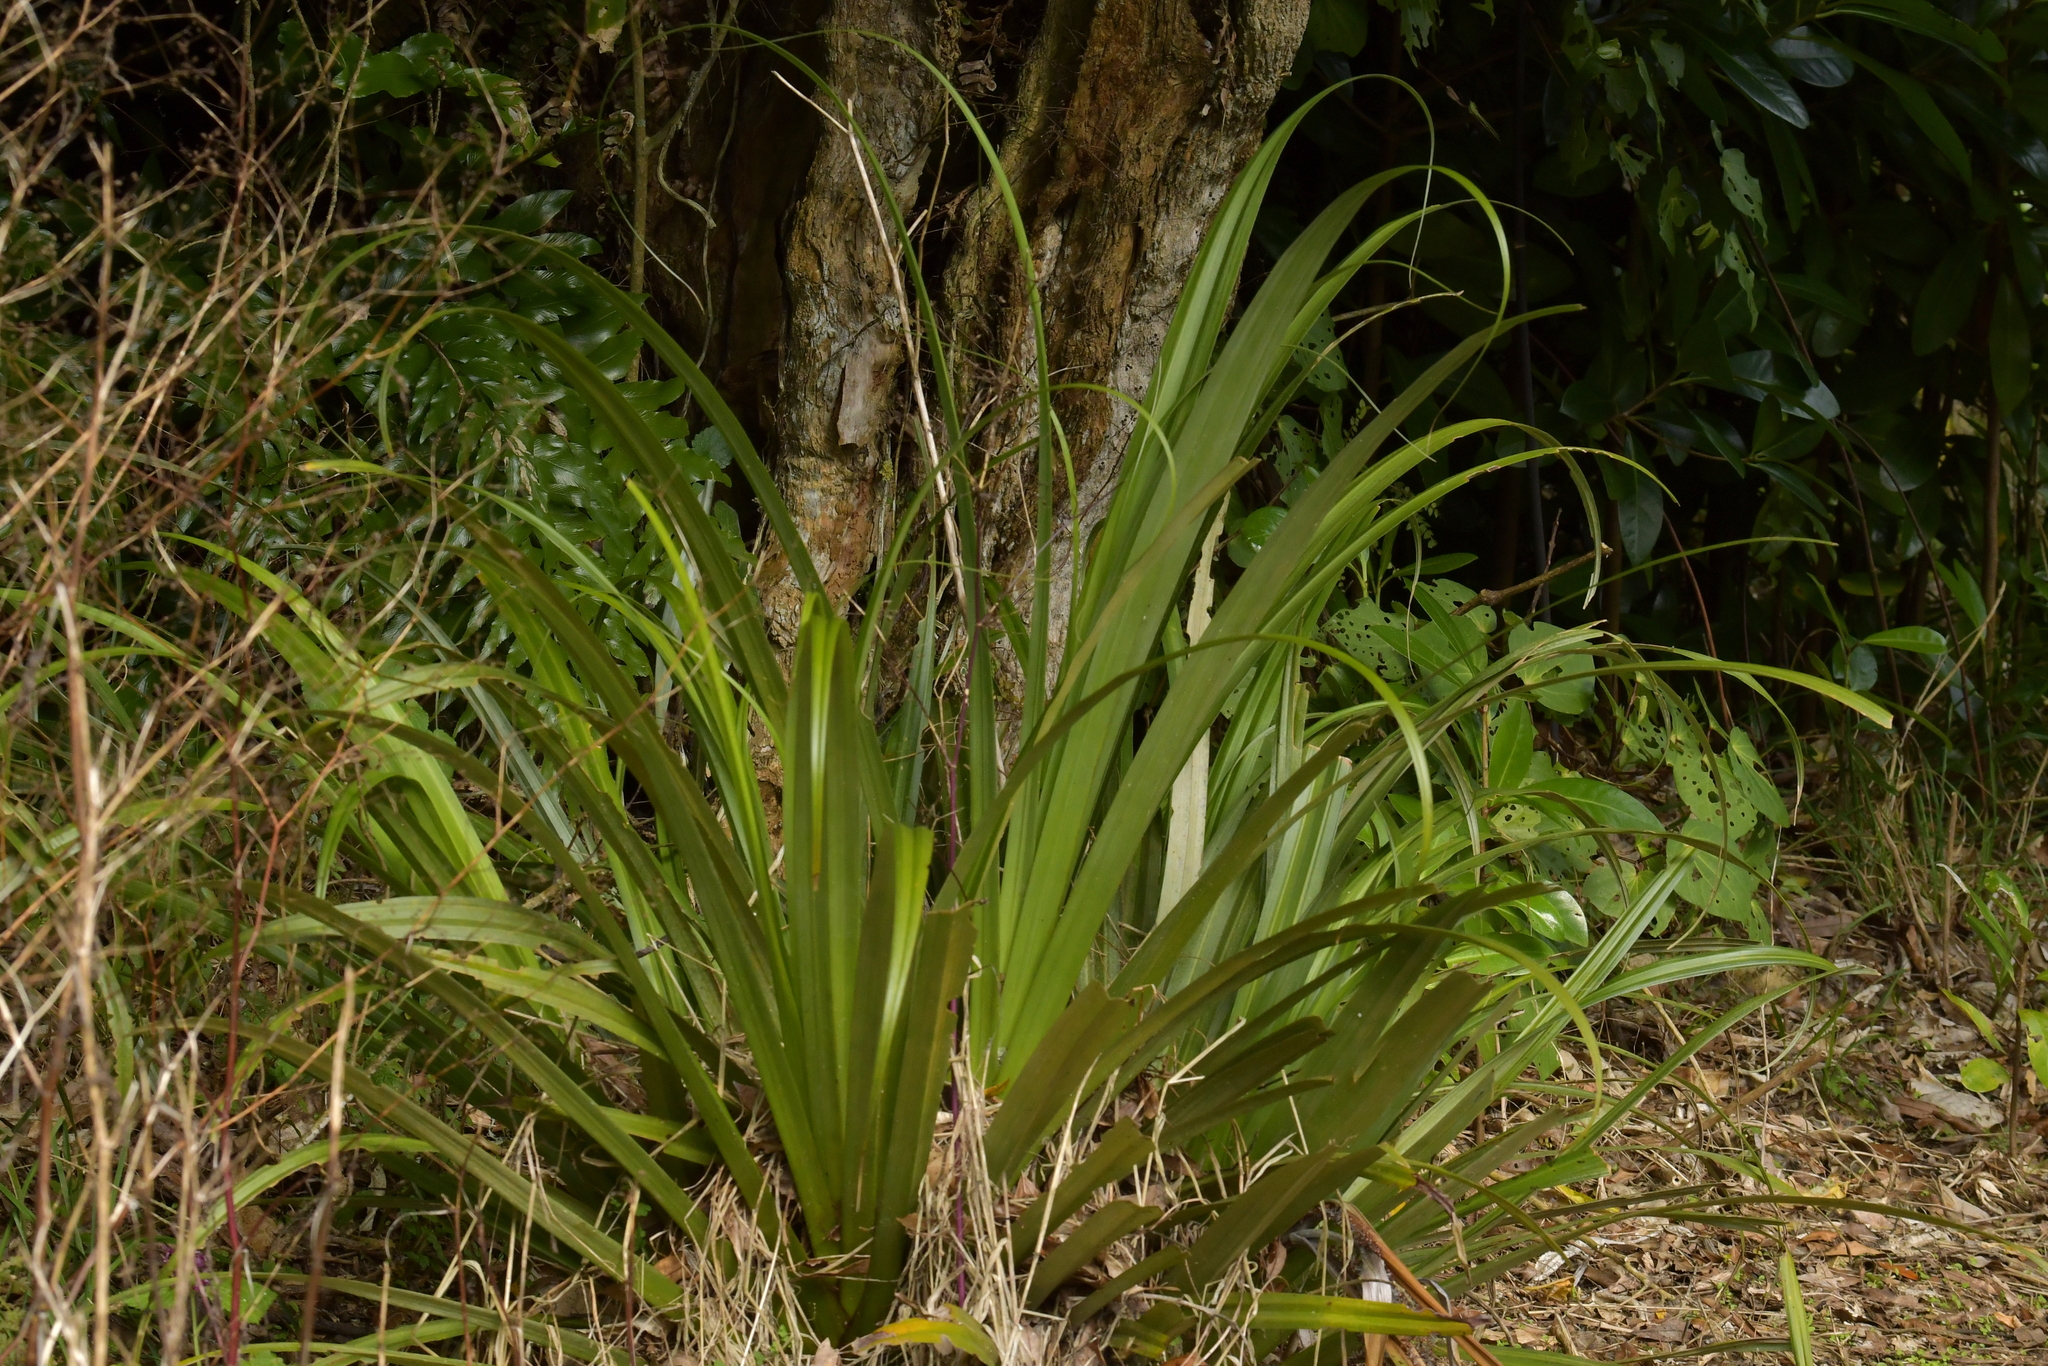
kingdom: Plantae
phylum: Tracheophyta
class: Liliopsida
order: Asparagales
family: Asteliaceae
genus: Astelia
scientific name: Astelia fragrans
